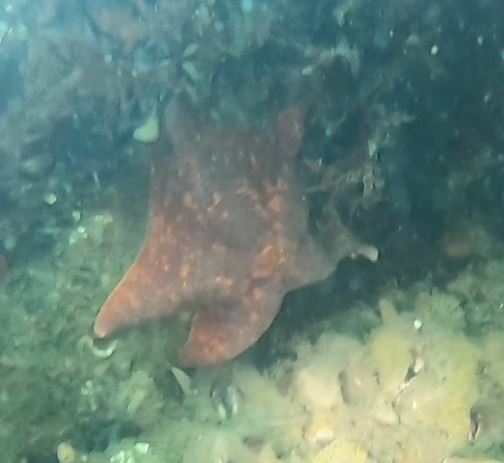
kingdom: Animalia
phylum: Echinodermata
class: Asteroidea
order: Valvatida
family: Asterinidae
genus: Patiria
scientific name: Patiria miniata
